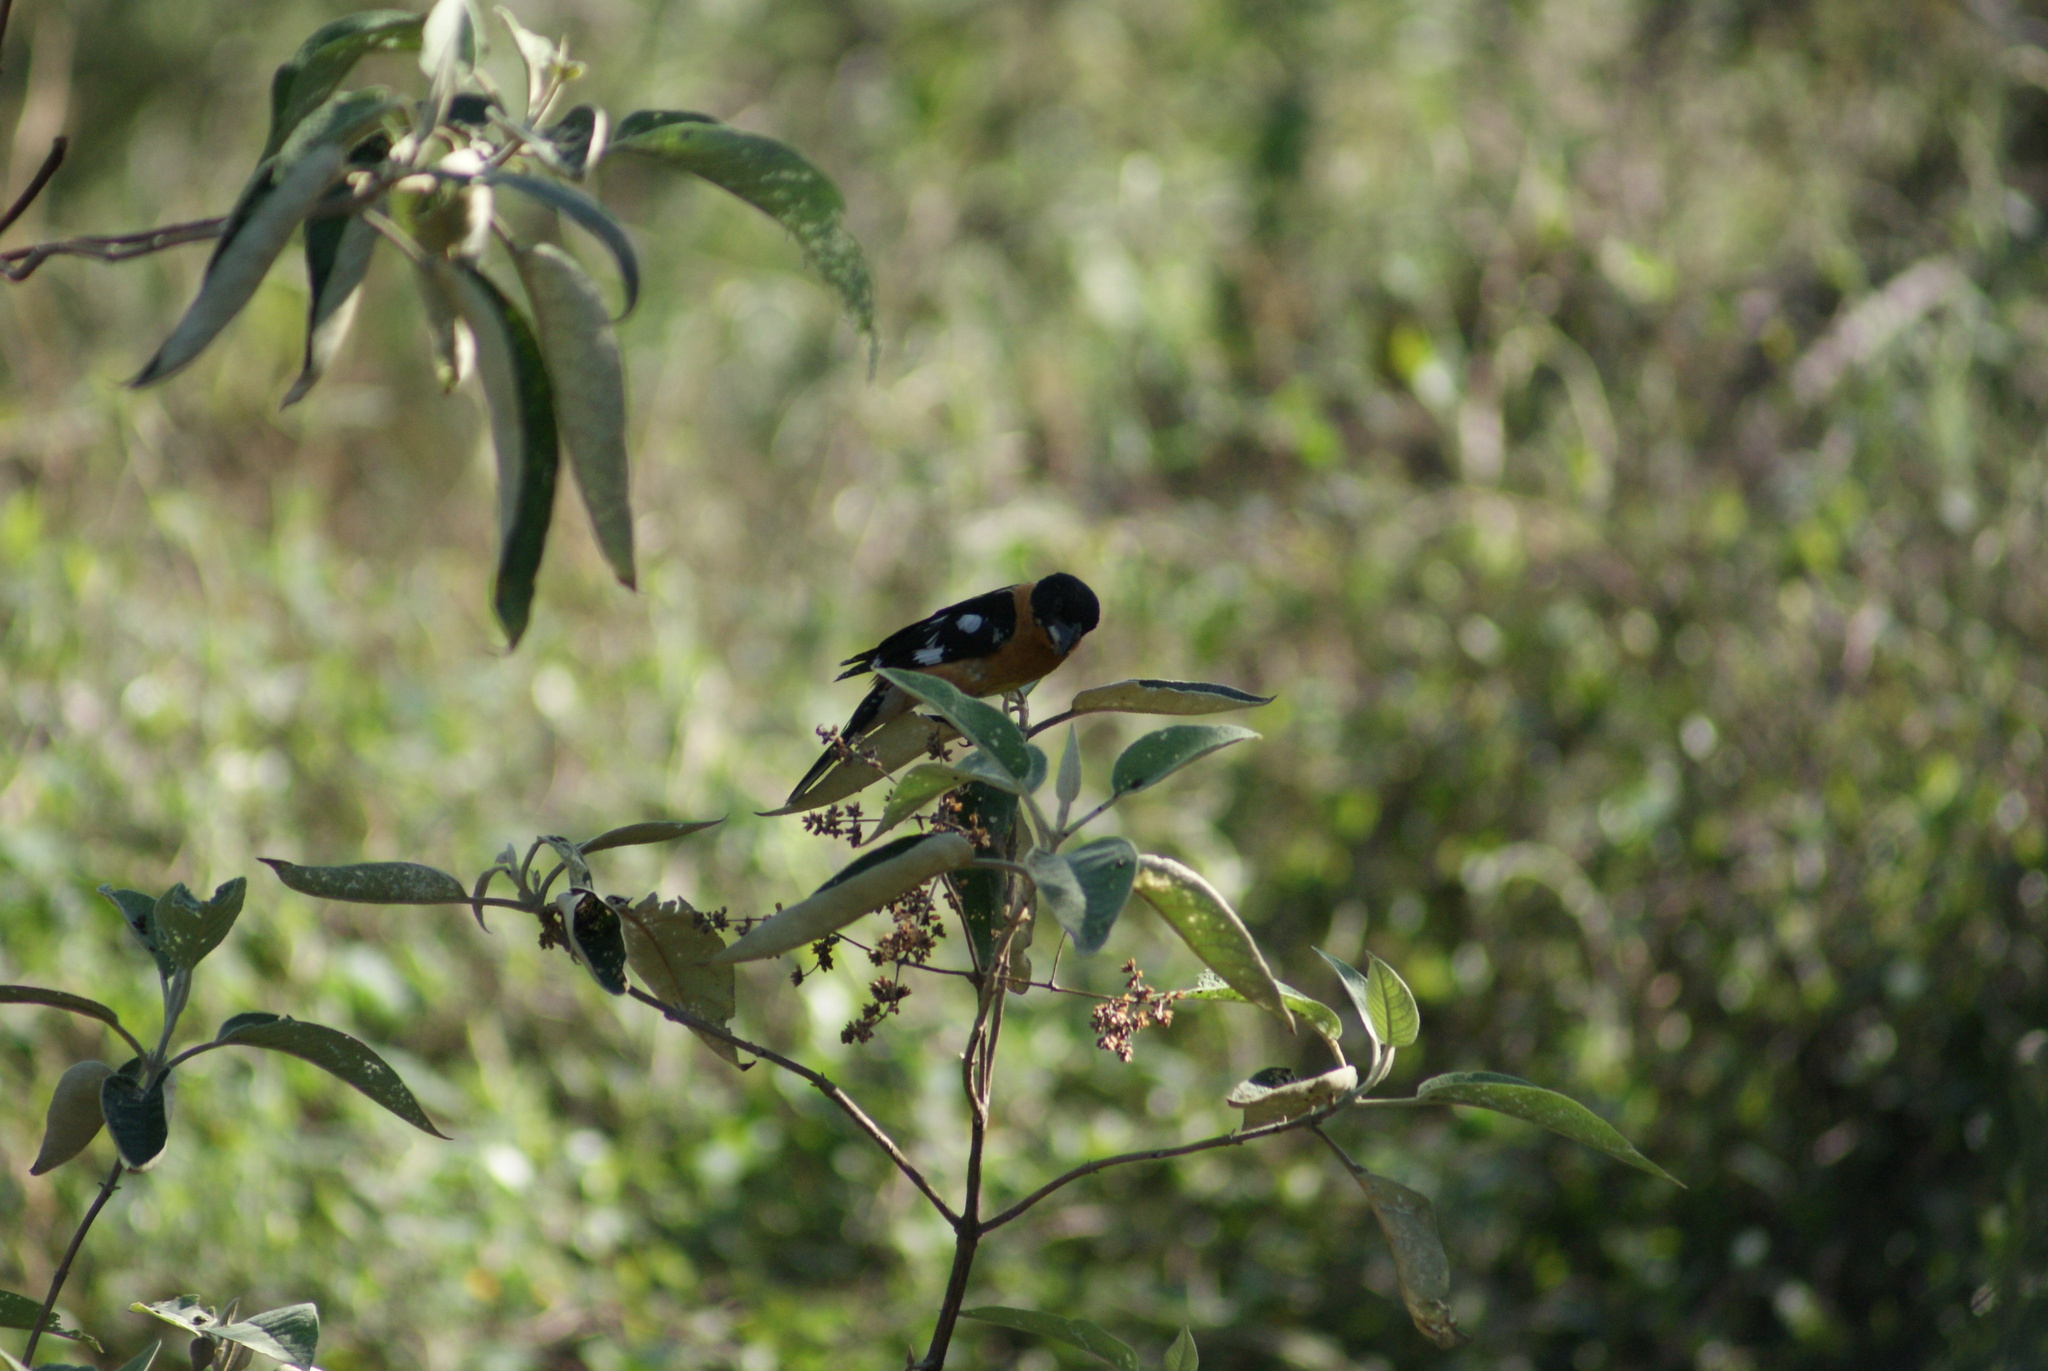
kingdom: Animalia
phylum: Chordata
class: Aves
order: Passeriformes
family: Cardinalidae
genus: Pheucticus
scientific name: Pheucticus melanocephalus
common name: Black-headed grosbeak
